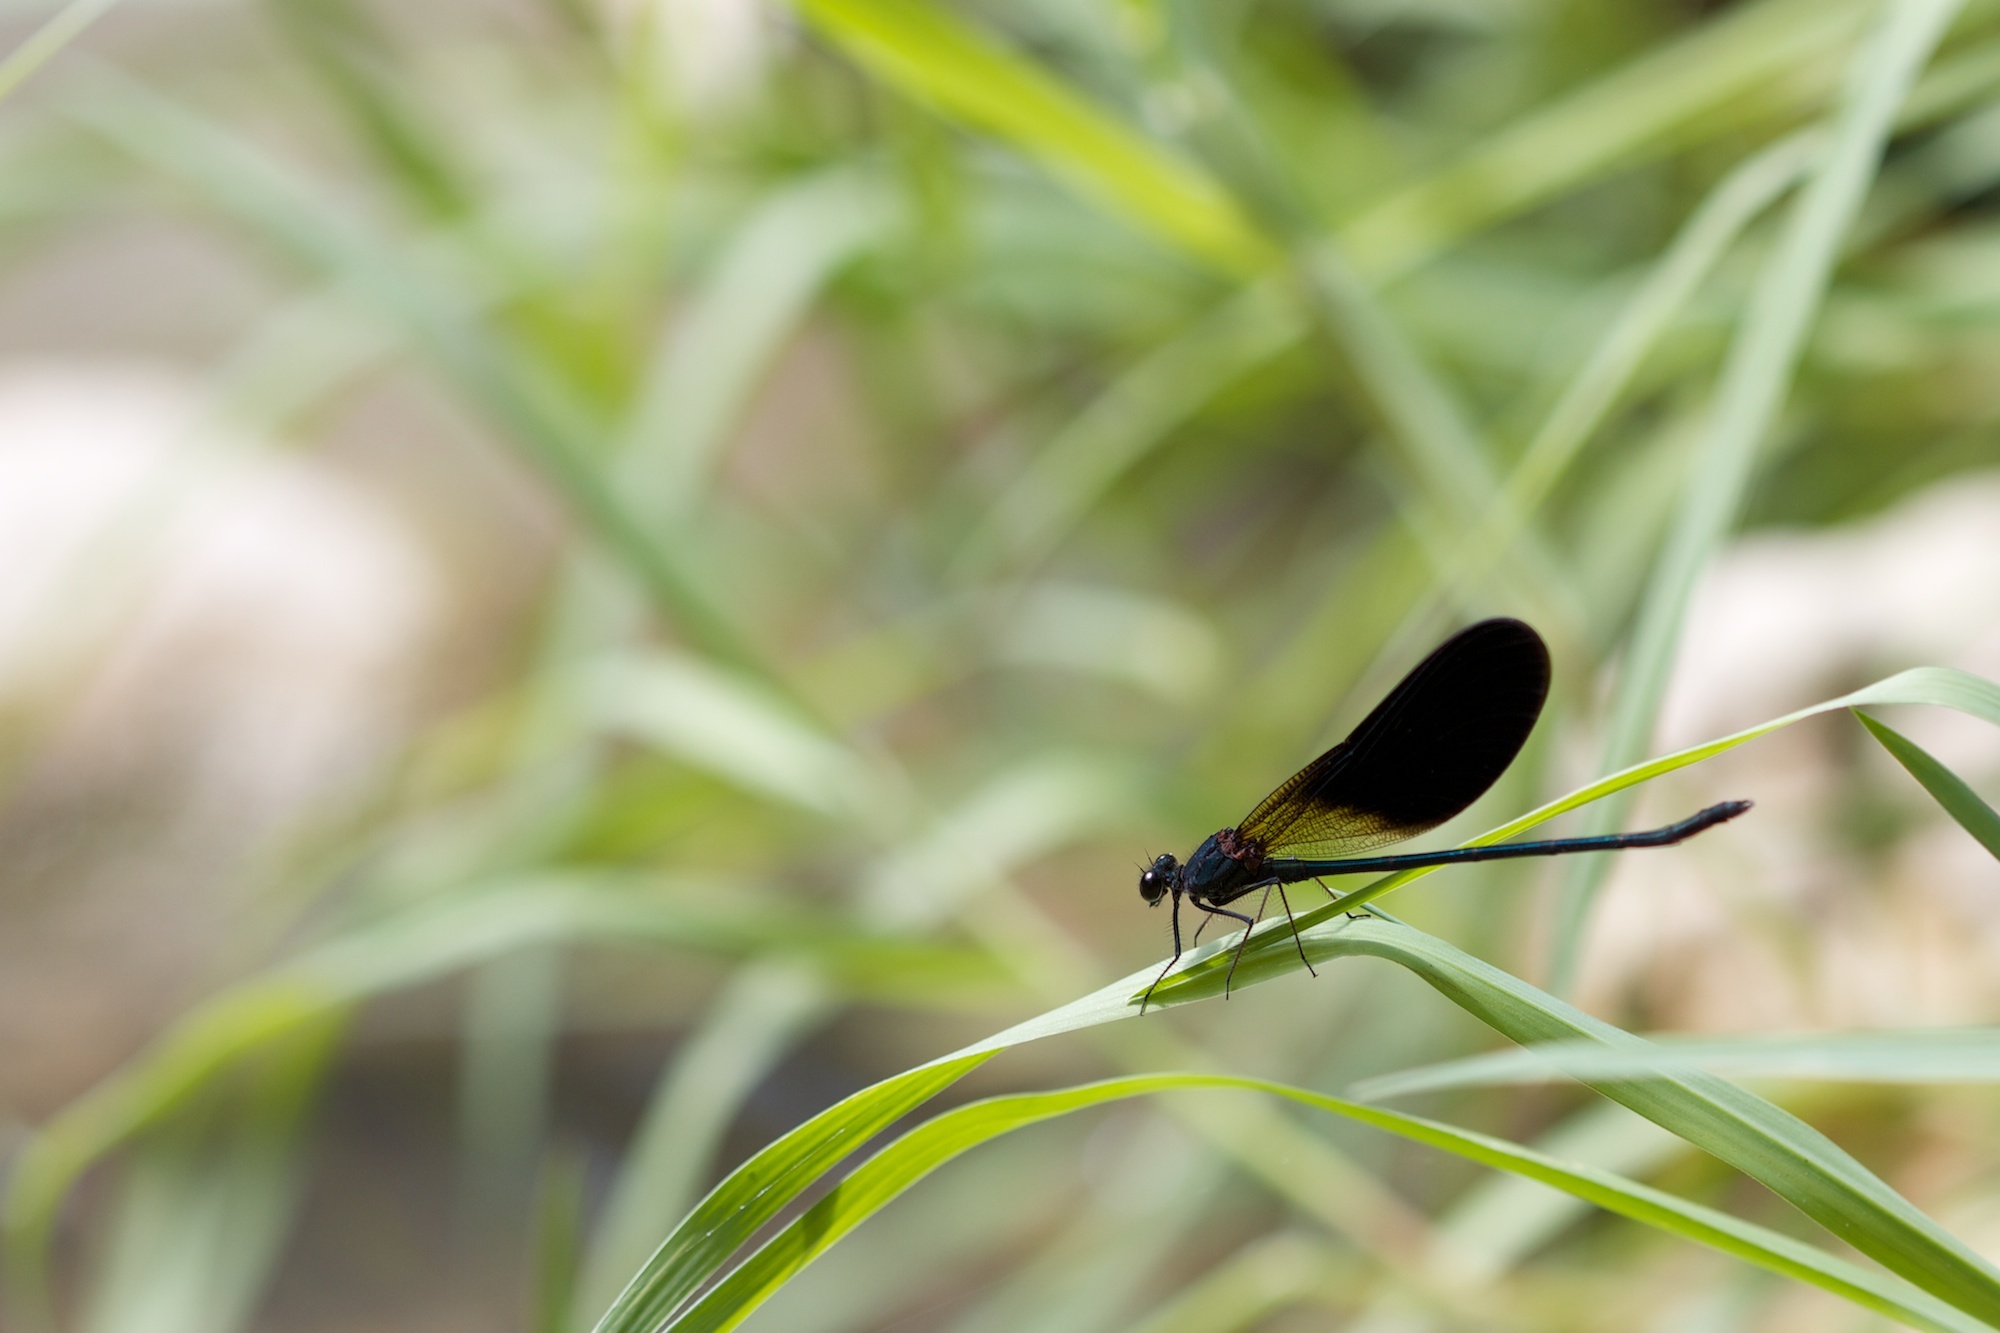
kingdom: Animalia
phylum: Arthropoda
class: Insecta
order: Odonata
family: Calopterygidae
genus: Calopteryx
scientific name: Calopteryx haemorrhoidalis
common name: Copper demoiselle
